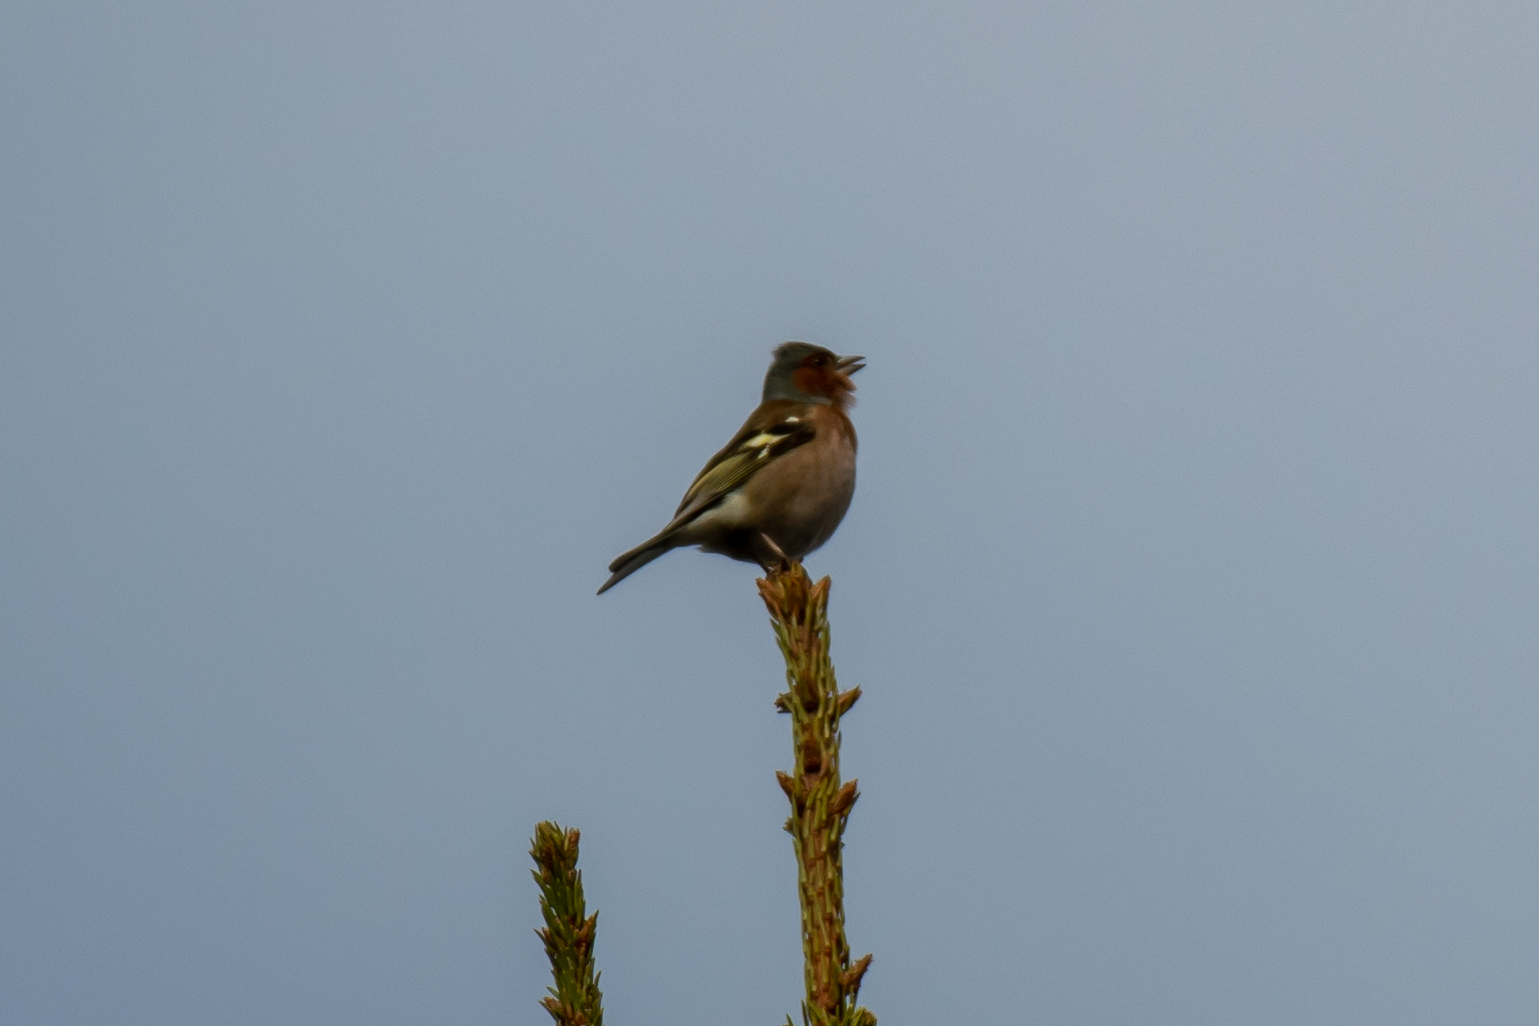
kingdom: Animalia
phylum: Chordata
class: Aves
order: Passeriformes
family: Fringillidae
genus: Fringilla
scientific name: Fringilla coelebs
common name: Common chaffinch
